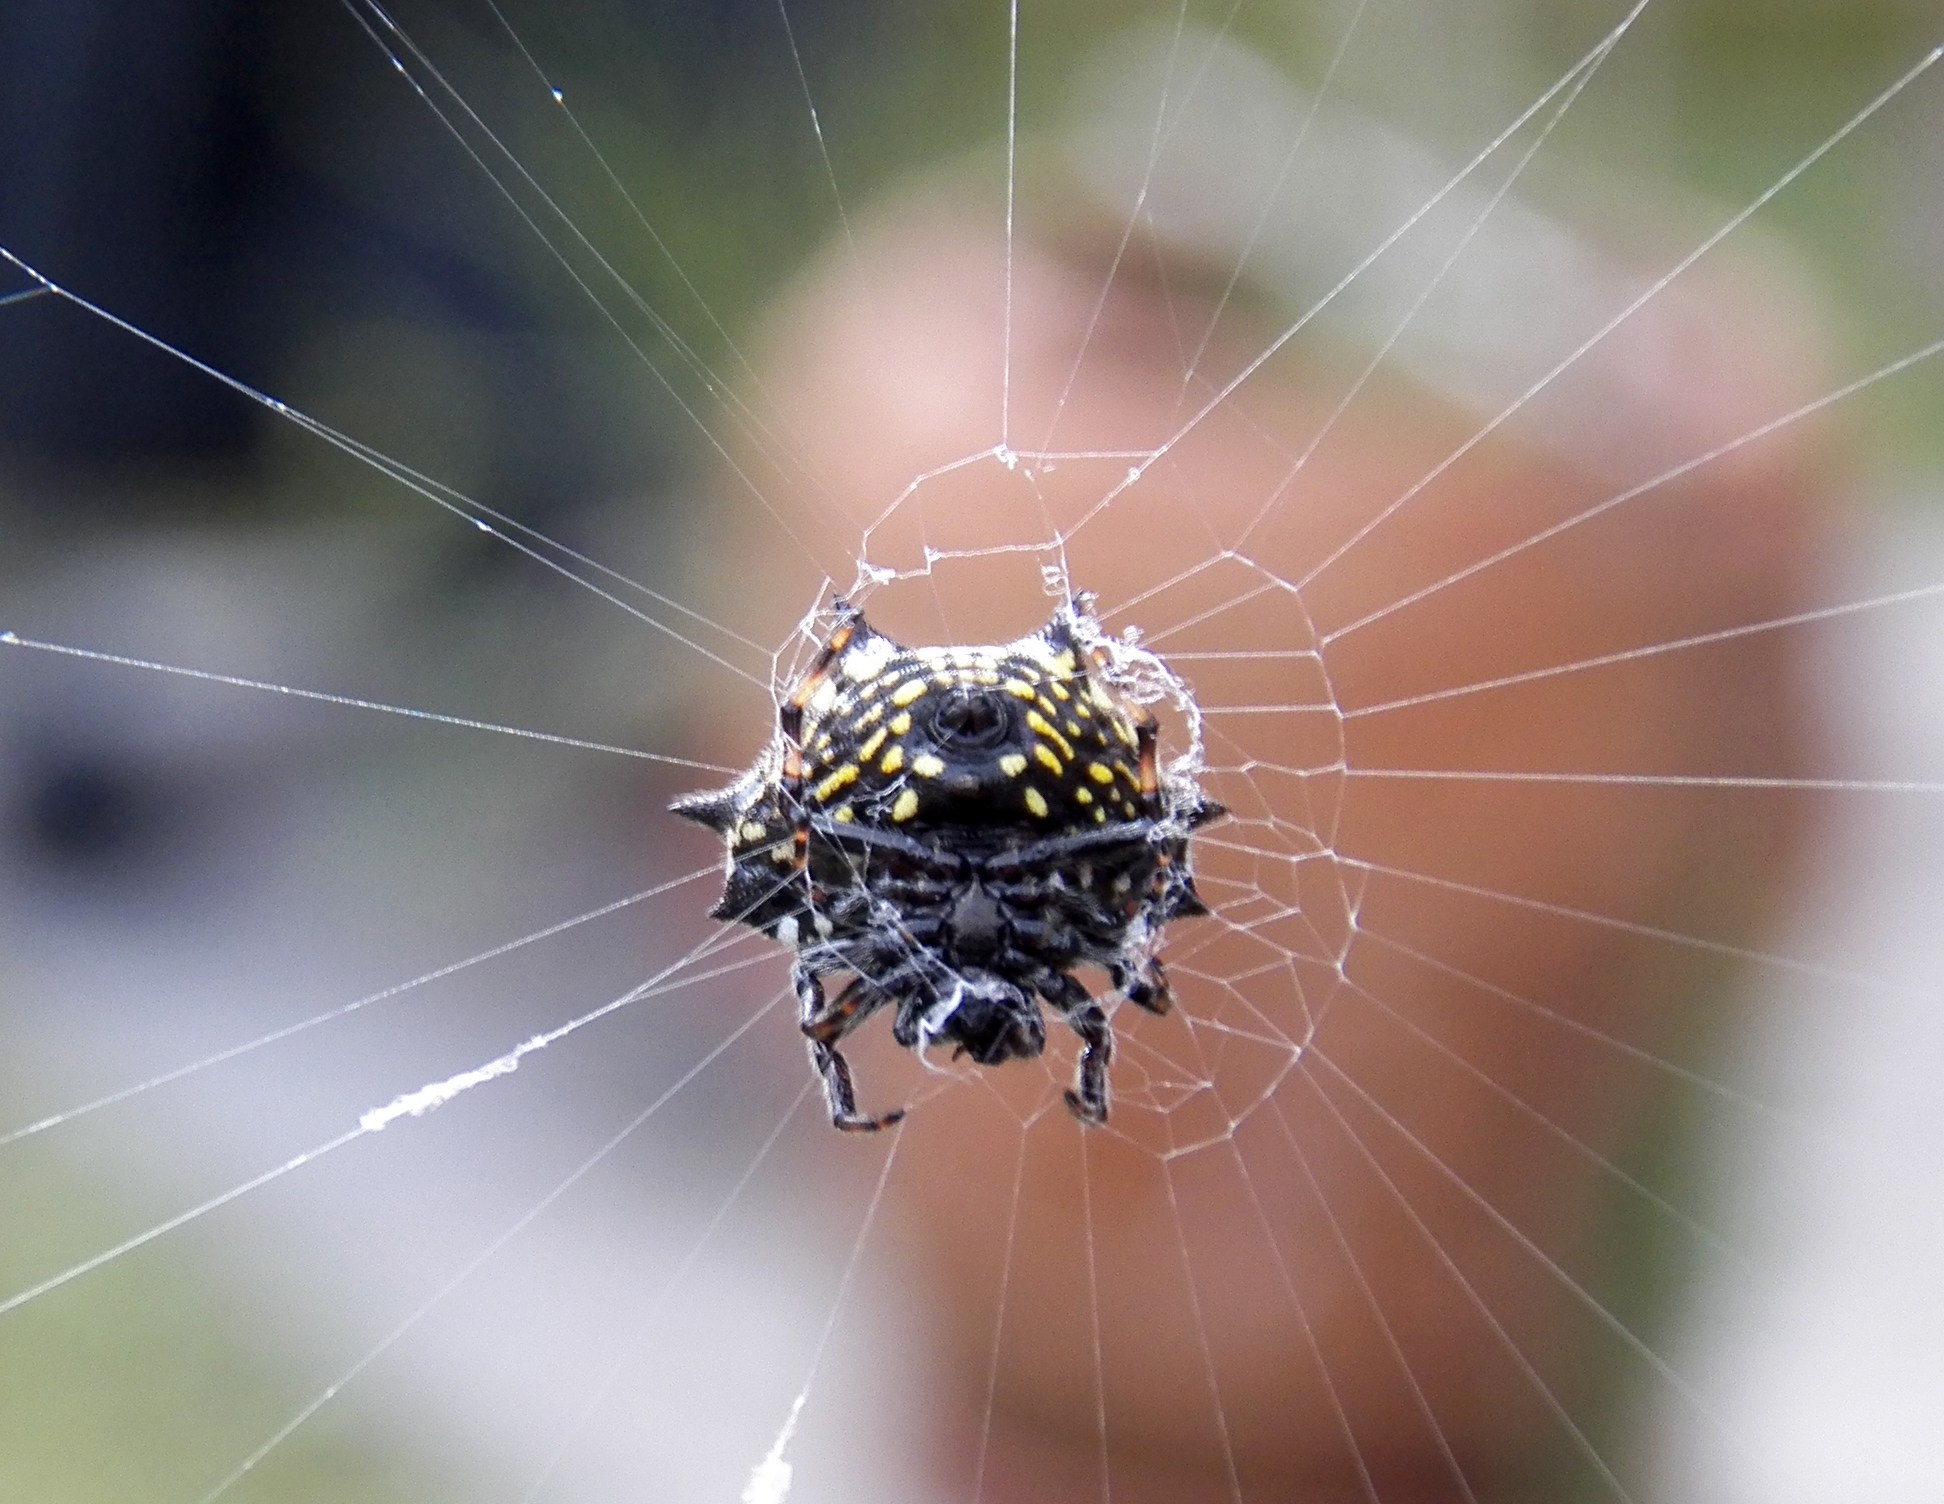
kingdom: Animalia
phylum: Arthropoda
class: Arachnida
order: Araneae
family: Araneidae
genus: Gasteracantha
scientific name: Gasteracantha cancriformis
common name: Orb weavers
